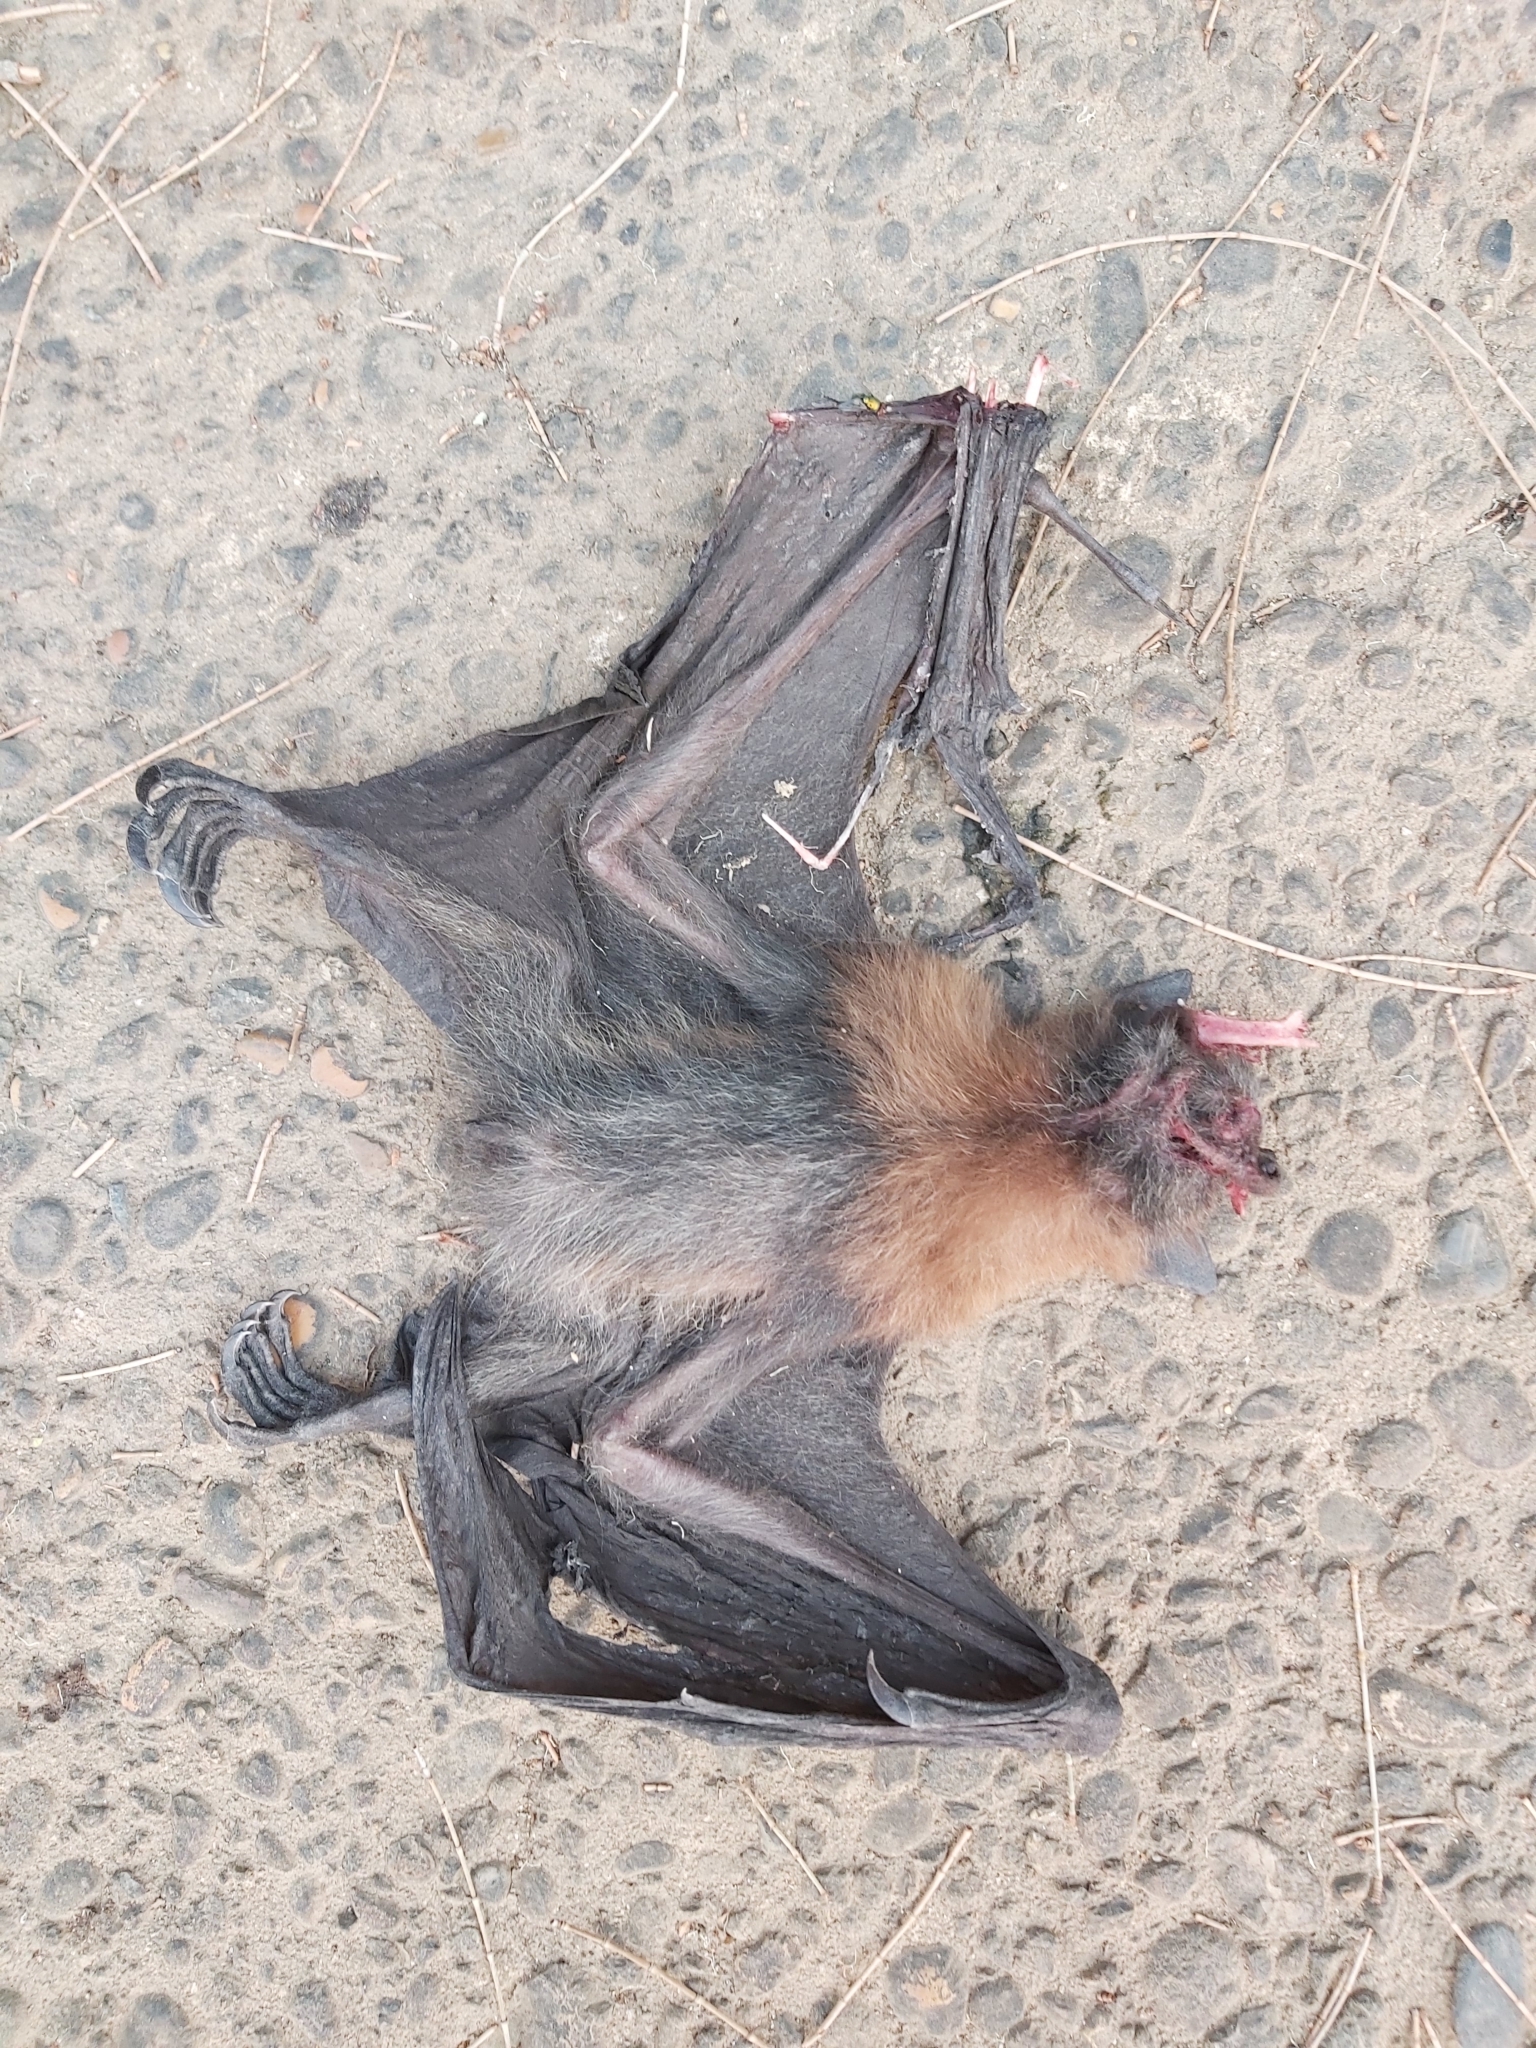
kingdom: Animalia
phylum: Chordata
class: Mammalia
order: Chiroptera
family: Pteropodidae
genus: Pteropus
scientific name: Pteropus poliocephalus
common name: Gray-headed flying fox
